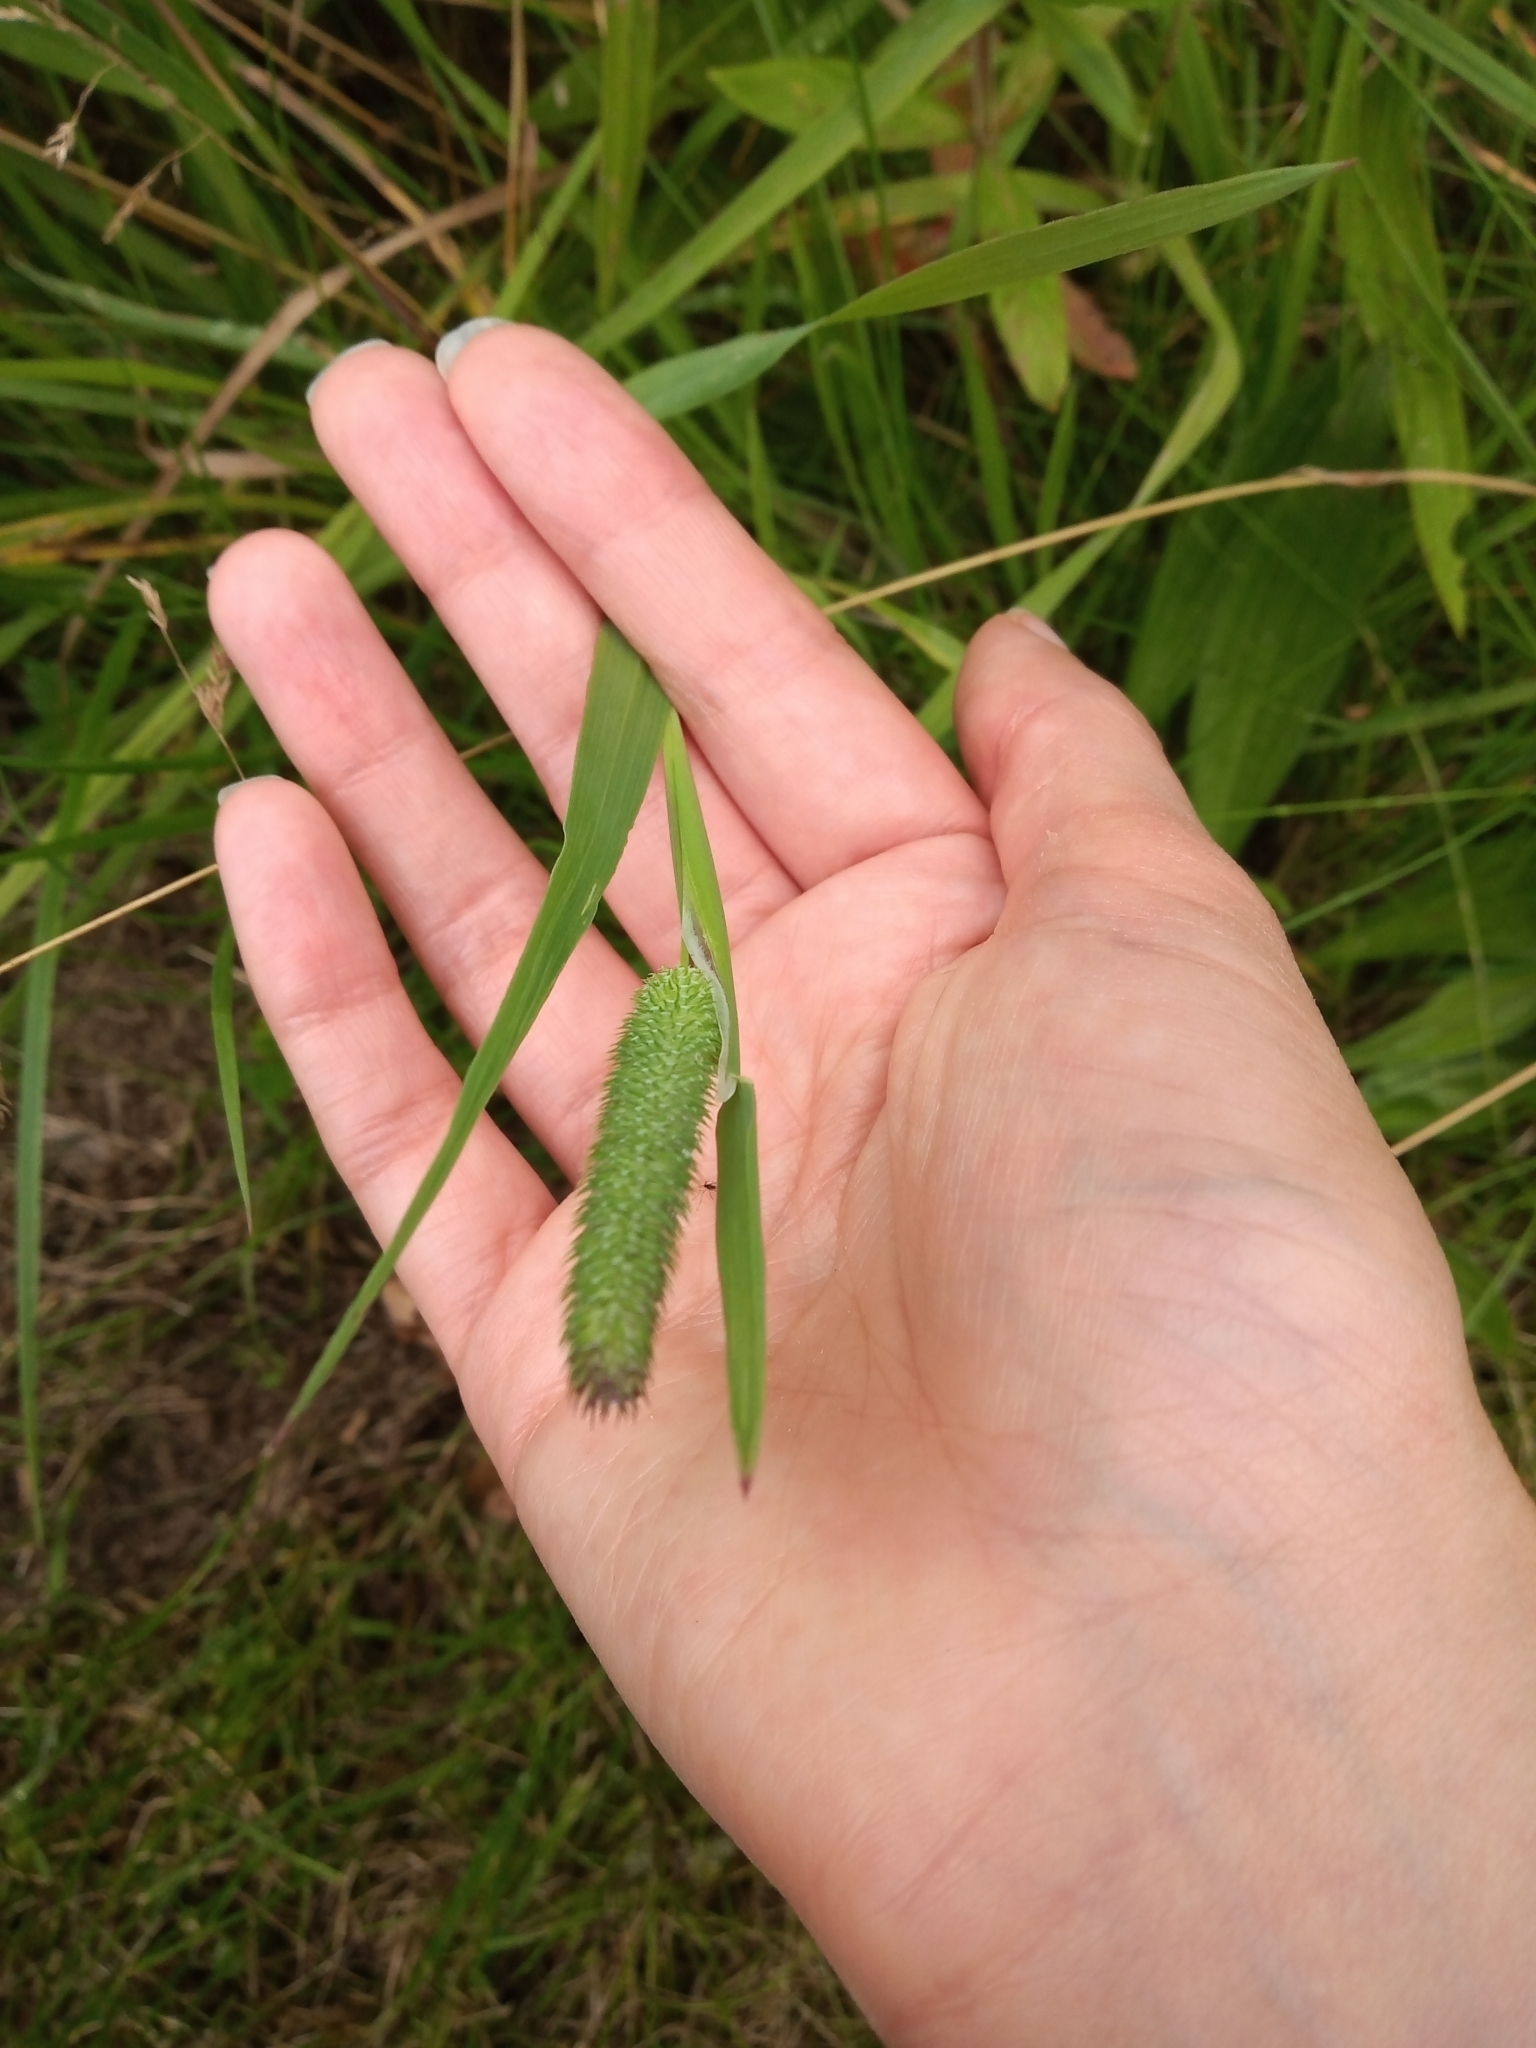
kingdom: Plantae
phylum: Tracheophyta
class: Liliopsida
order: Poales
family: Poaceae
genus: Phleum
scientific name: Phleum pratense
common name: Timothy grass
